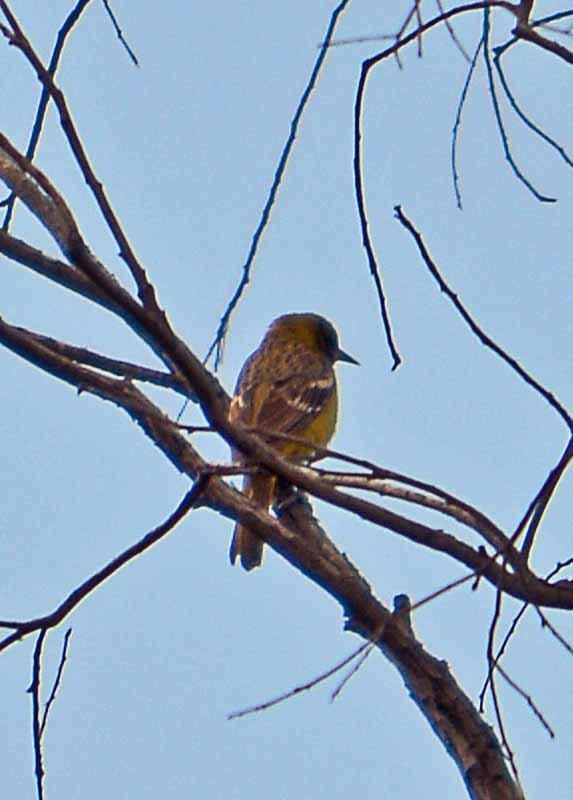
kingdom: Animalia
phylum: Chordata
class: Aves
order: Passeriformes
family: Icteridae
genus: Icterus
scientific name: Icterus parisorum
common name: Scott's oriole
